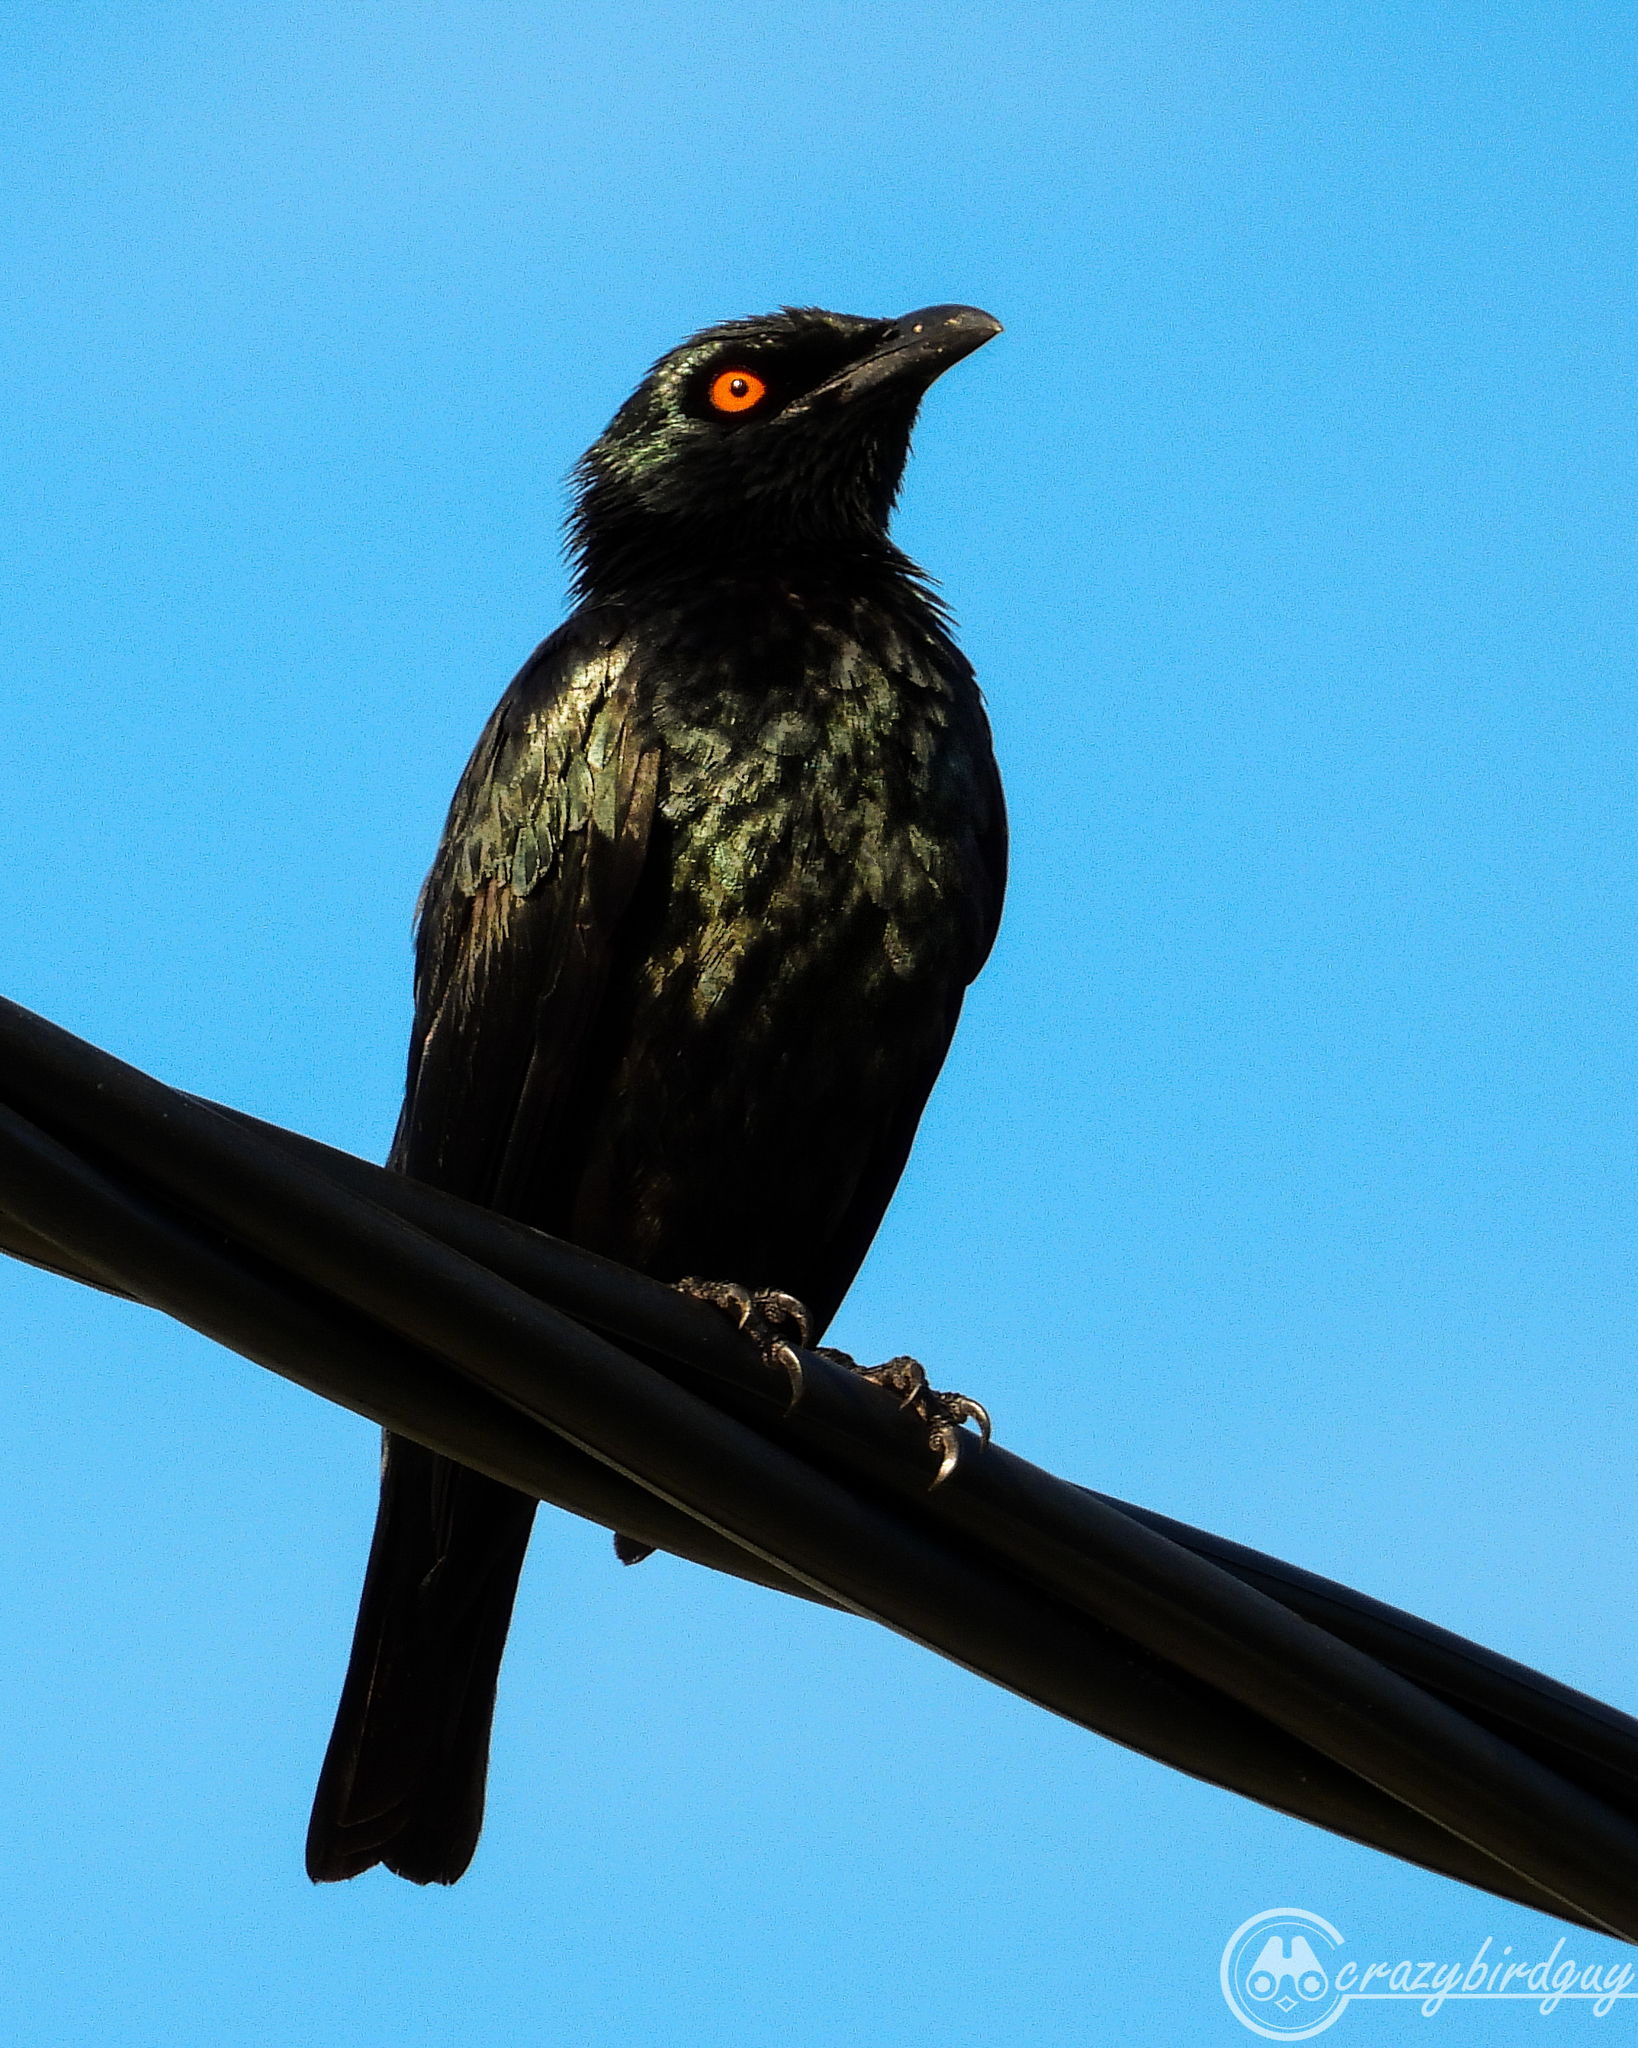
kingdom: Animalia
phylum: Chordata
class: Aves
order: Passeriformes
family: Sturnidae
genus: Aplonis
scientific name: Aplonis cantoroides
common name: Singing starling
